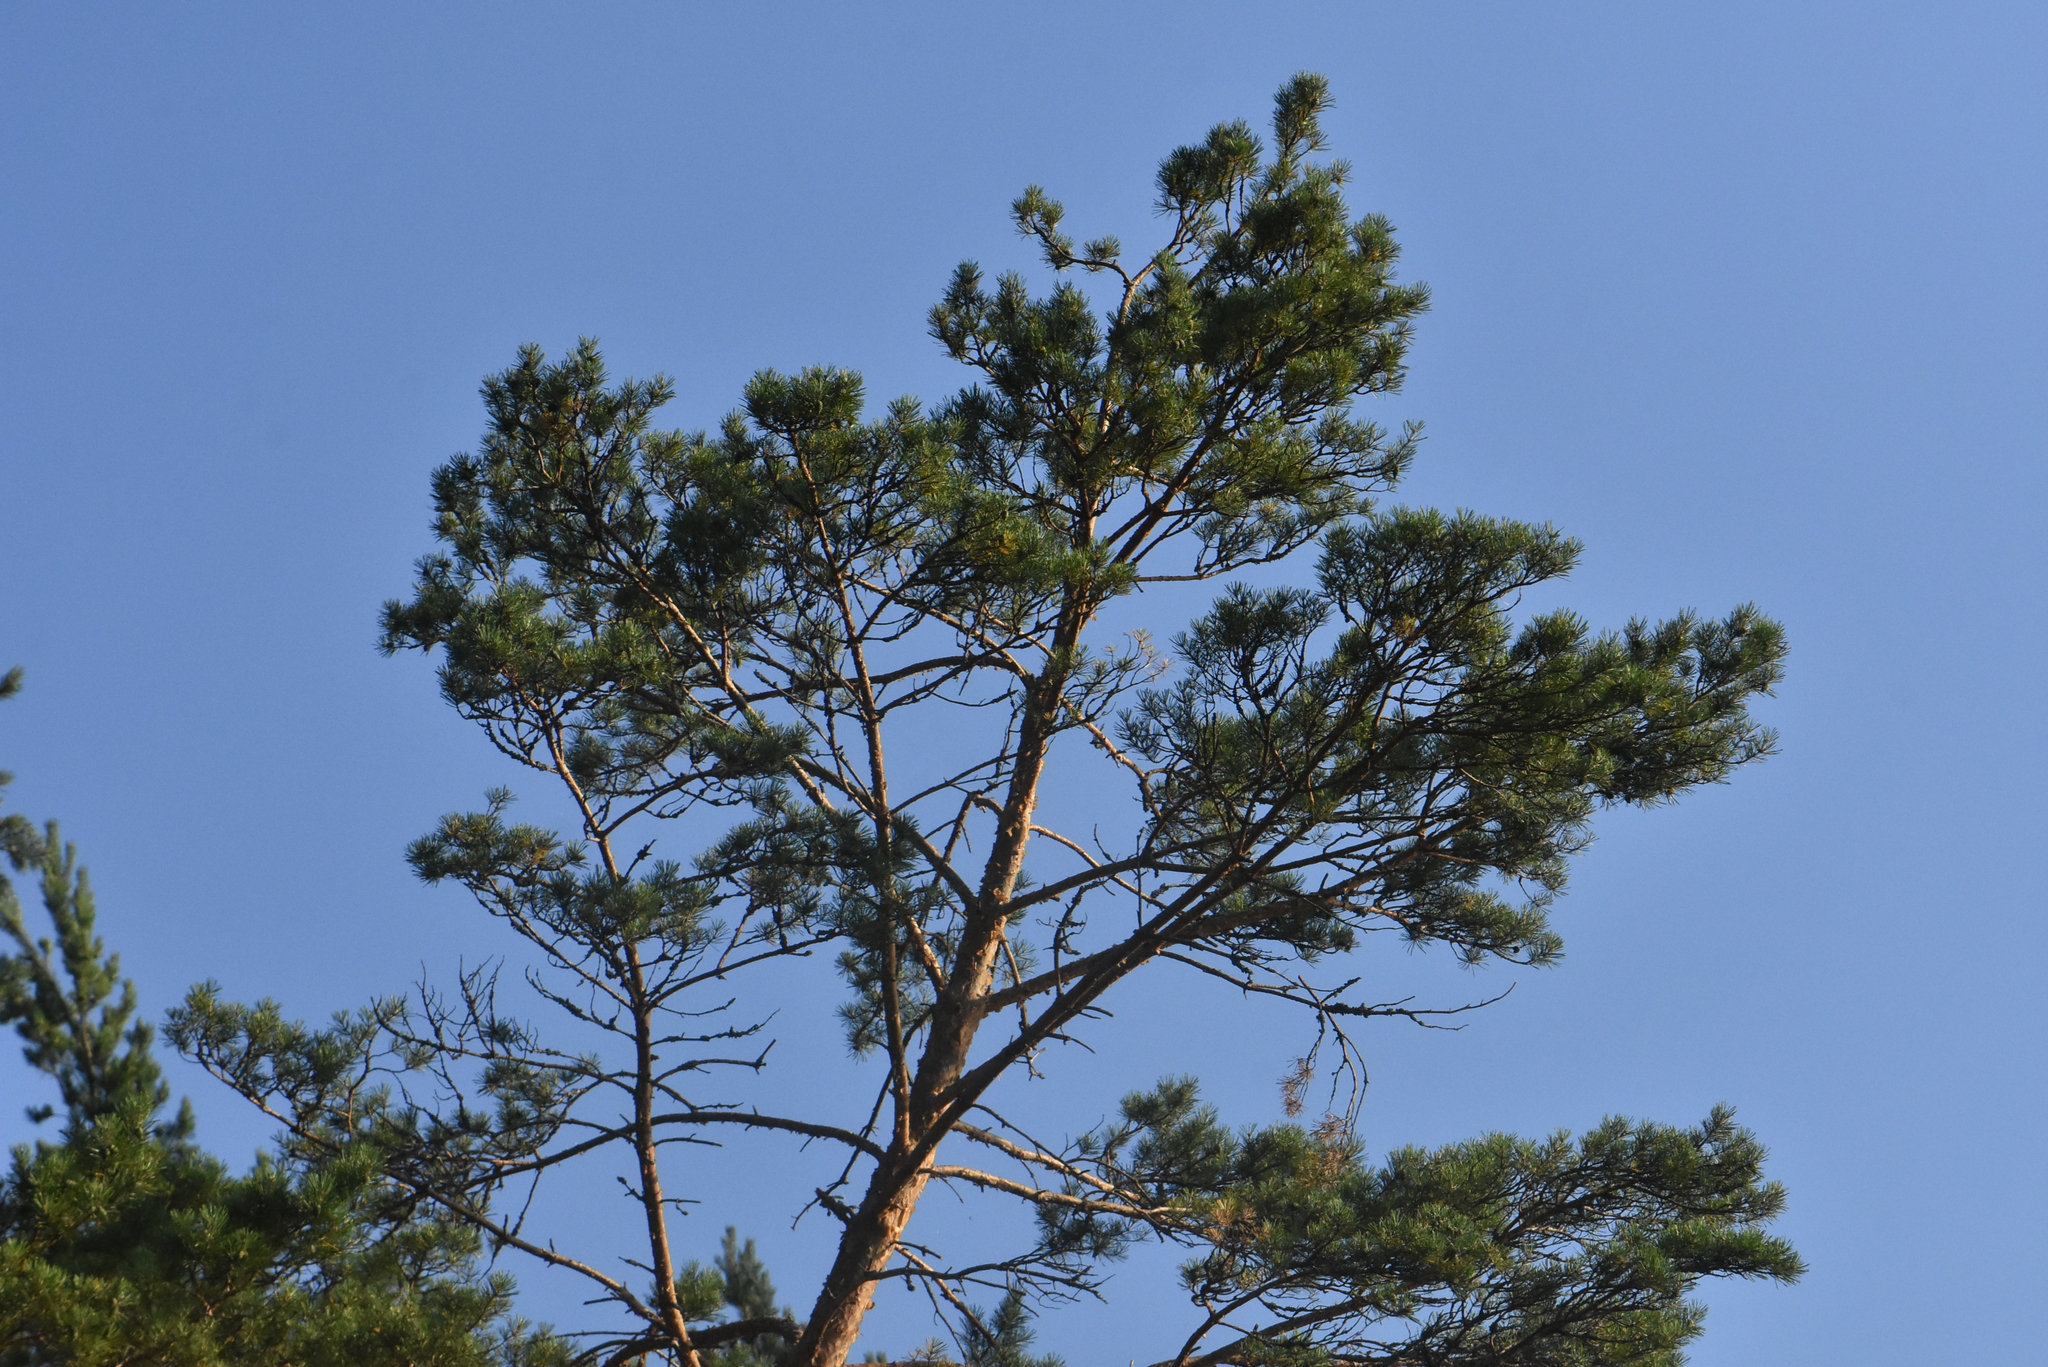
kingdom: Plantae
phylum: Tracheophyta
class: Pinopsida
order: Pinales
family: Pinaceae
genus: Pinus
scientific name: Pinus sylvestris
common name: Scots pine
